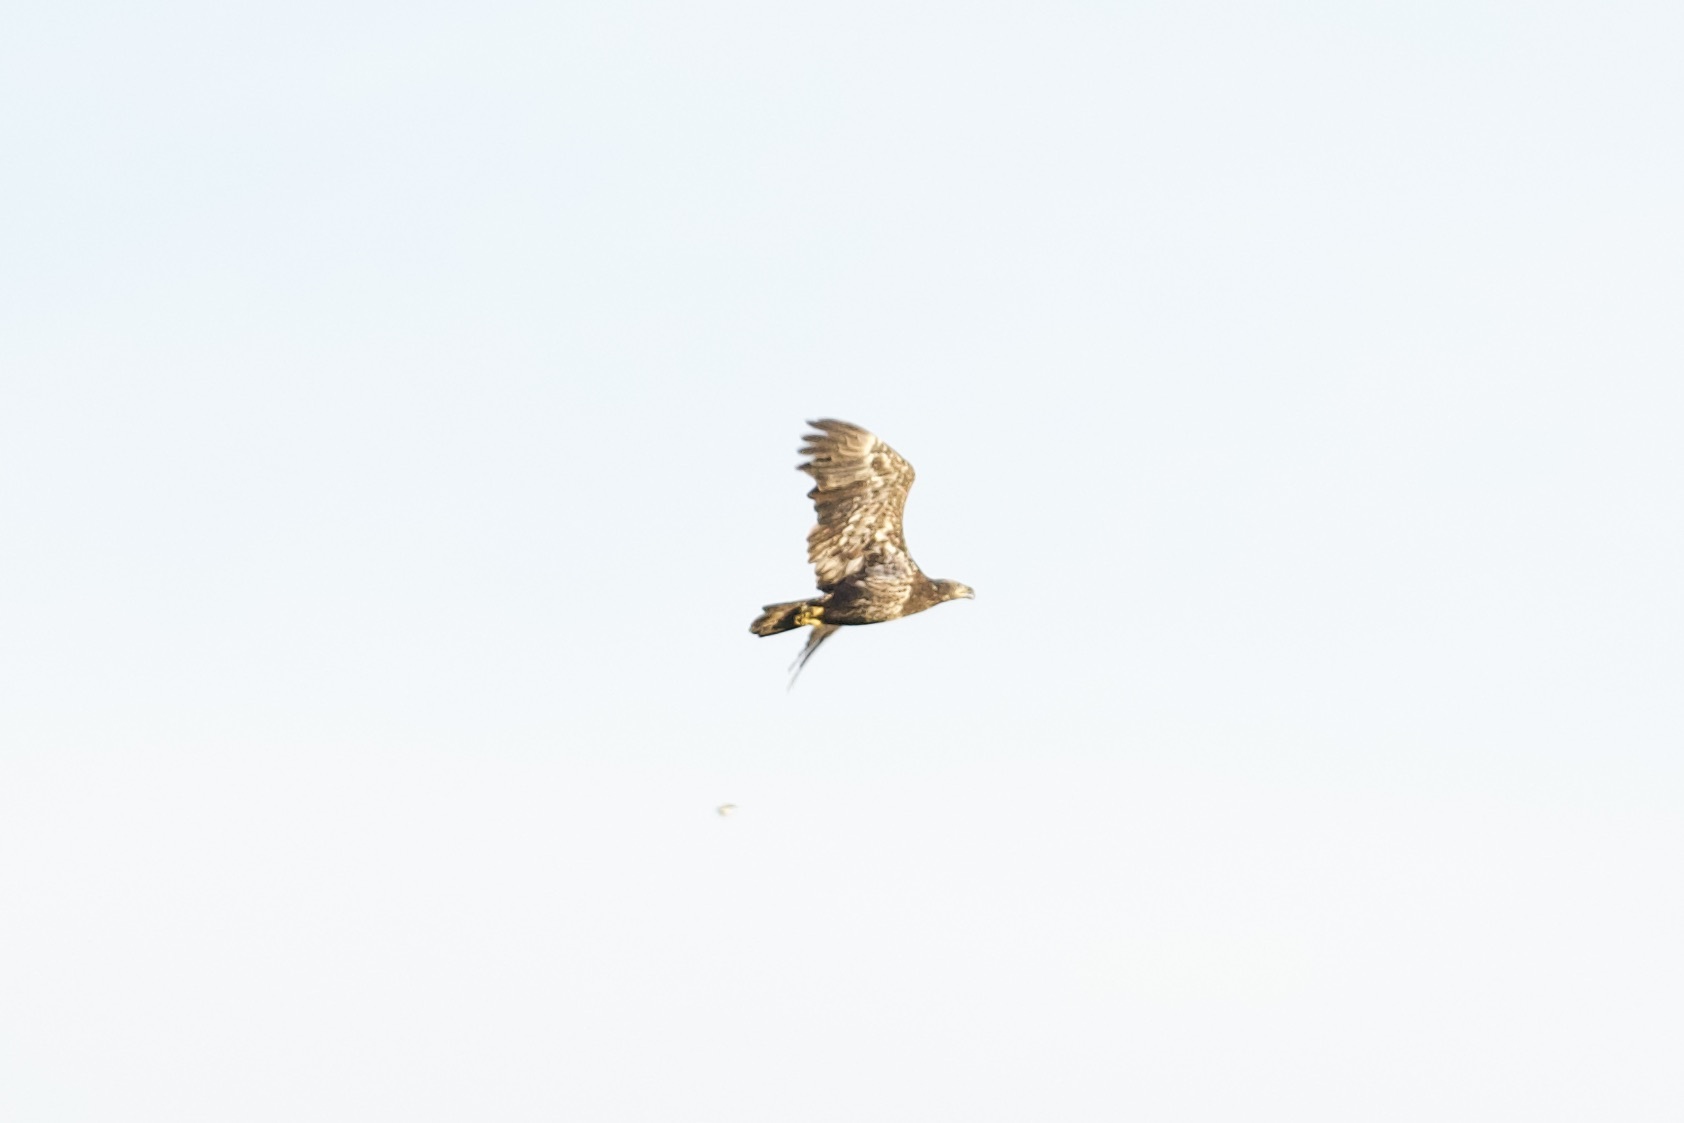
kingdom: Animalia
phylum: Chordata
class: Aves
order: Accipitriformes
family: Accipitridae
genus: Haliaeetus
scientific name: Haliaeetus leucocephalus
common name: Bald eagle
